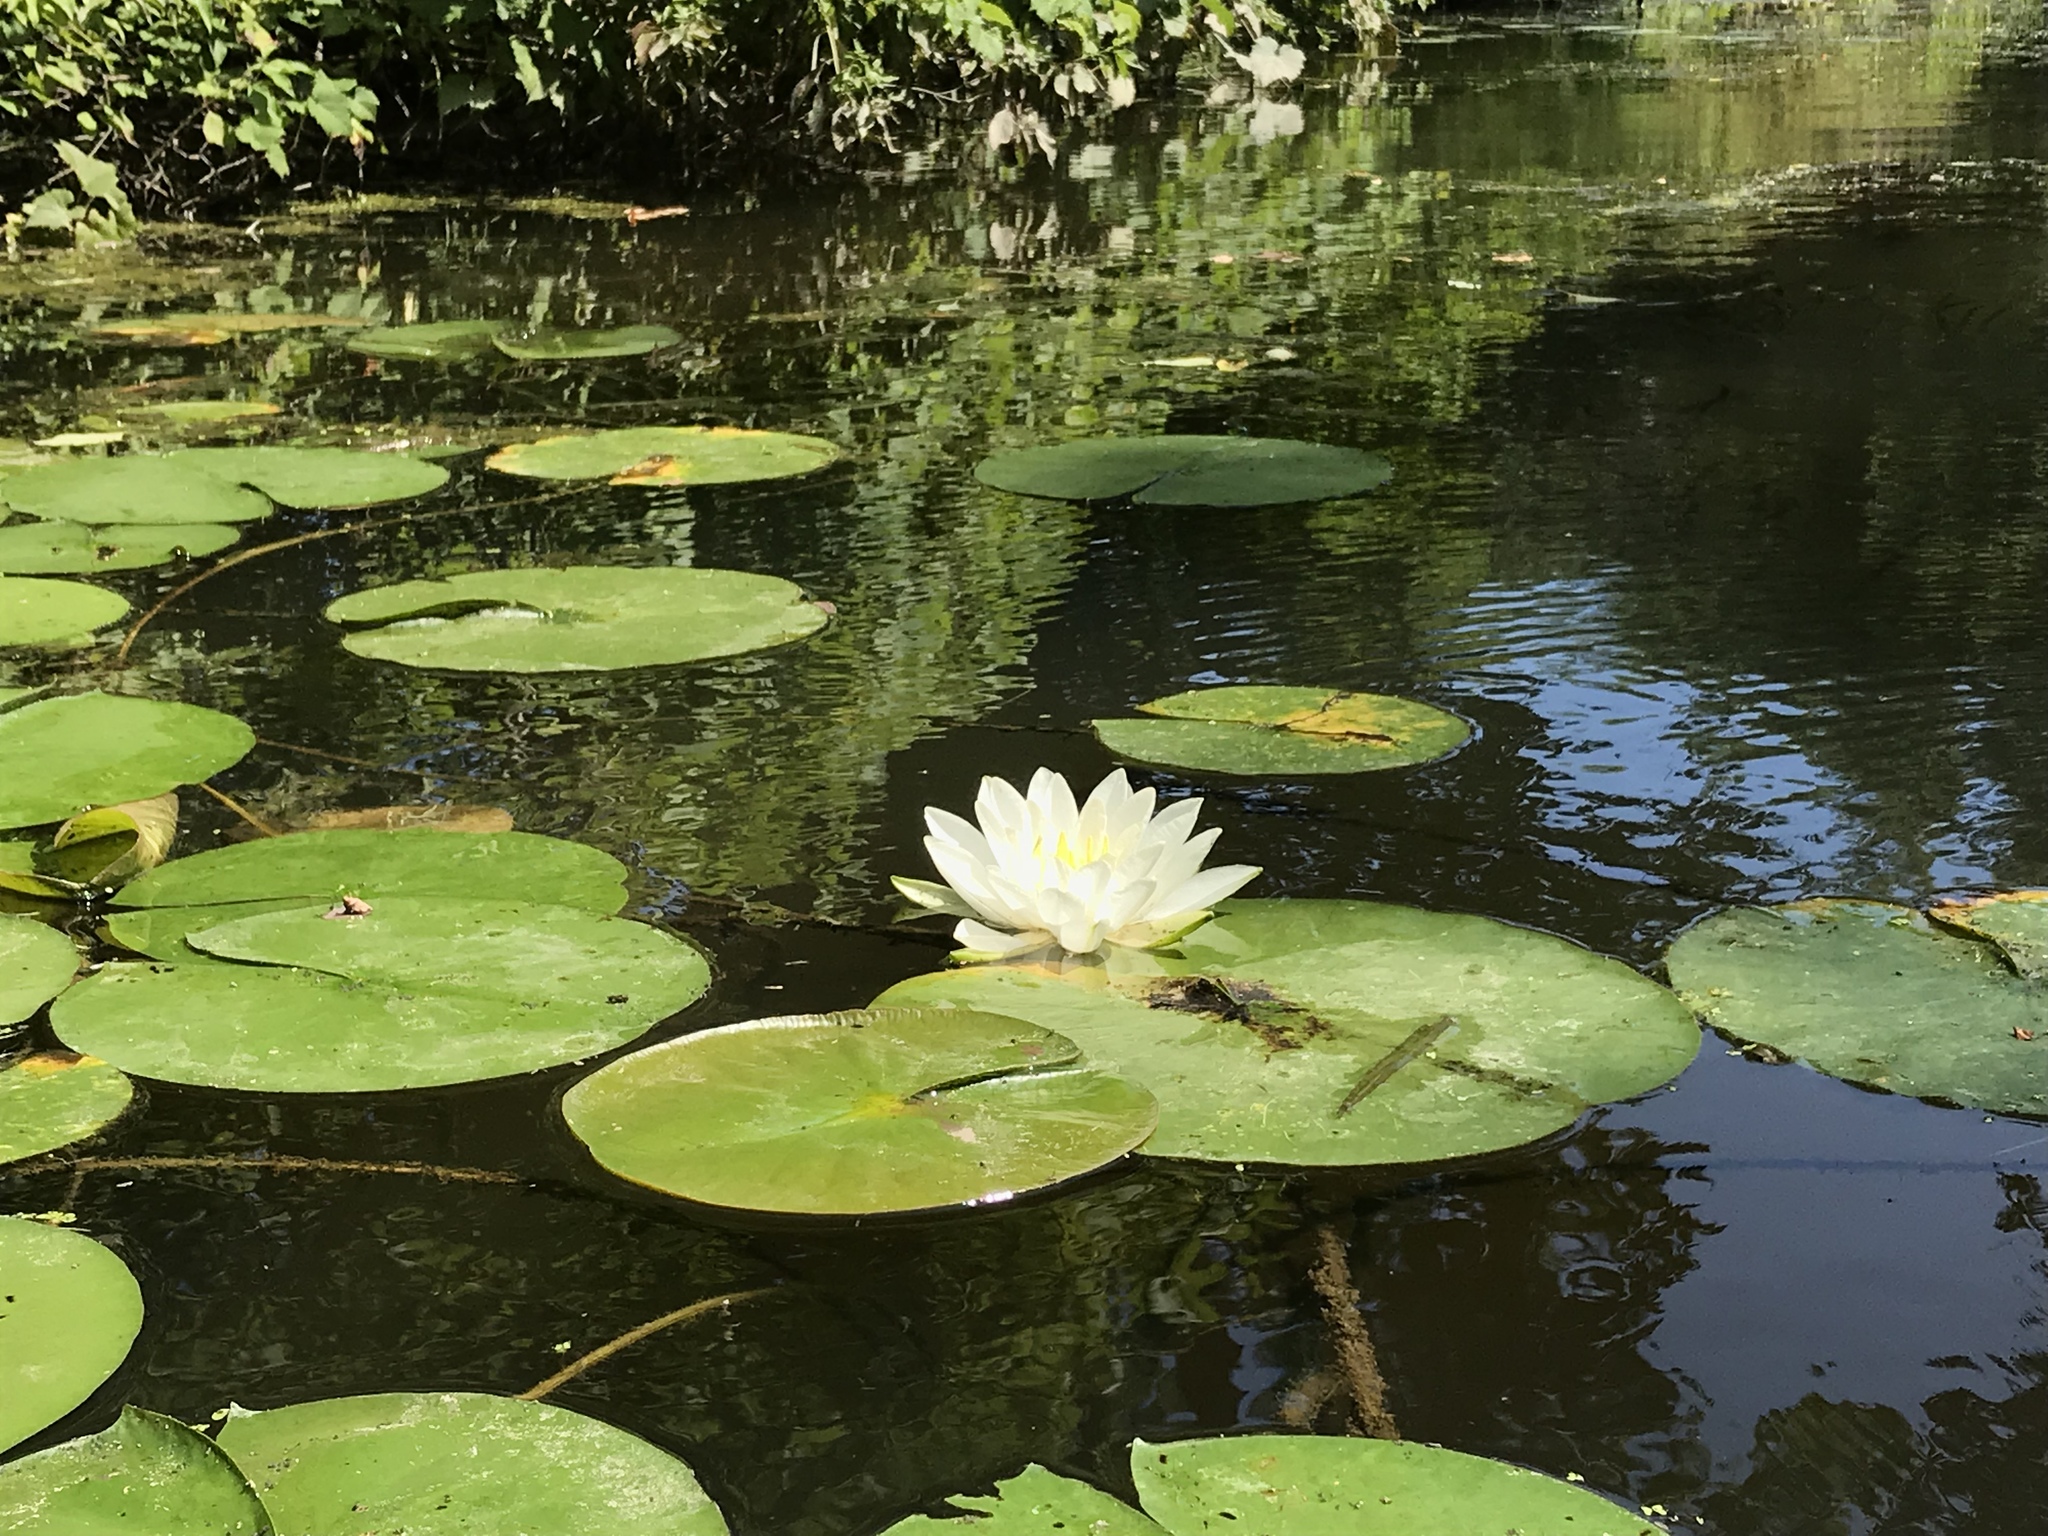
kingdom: Plantae
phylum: Tracheophyta
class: Magnoliopsida
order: Nymphaeales
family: Nymphaeaceae
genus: Nymphaea
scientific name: Nymphaea odorata
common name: Fragrant water-lily
